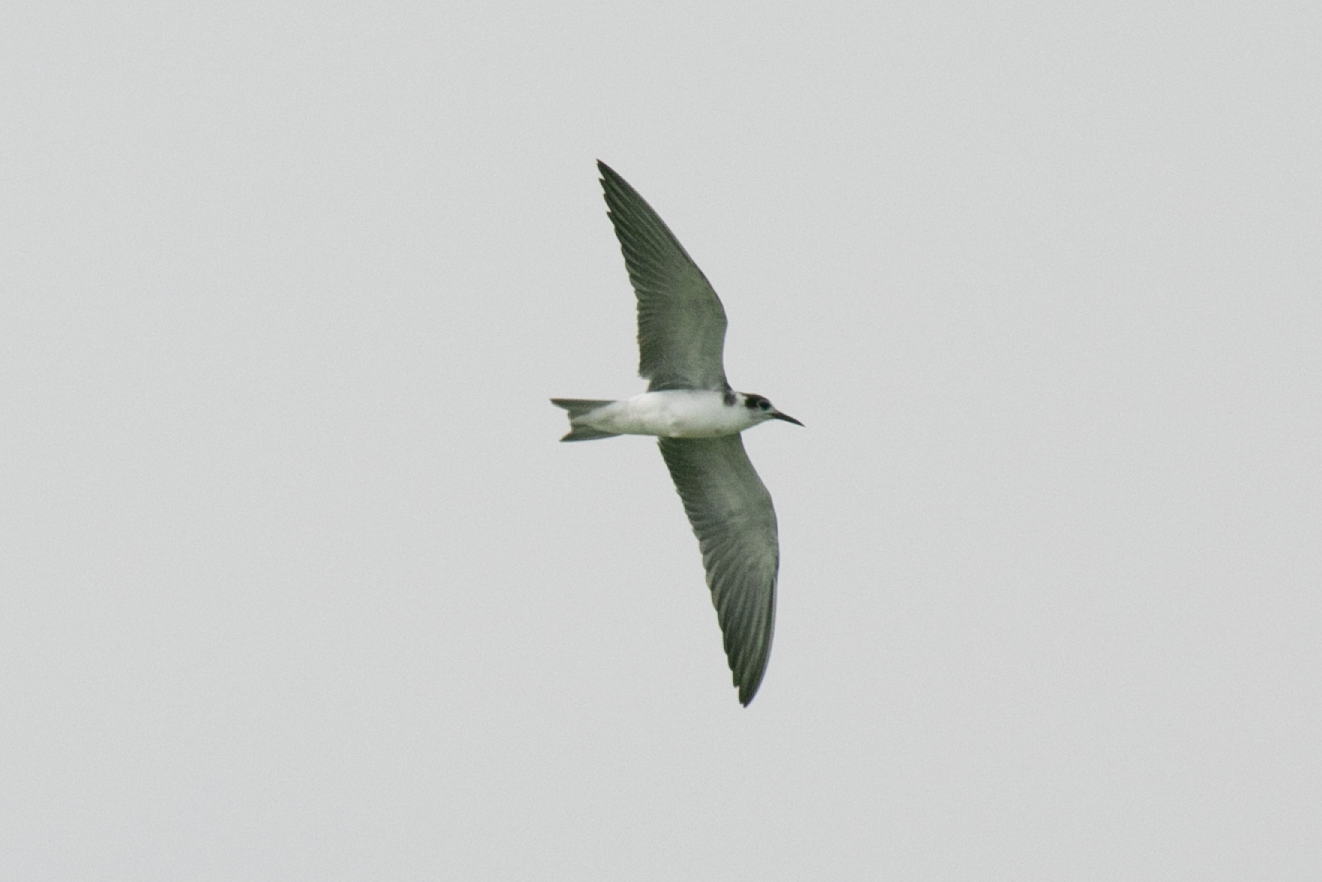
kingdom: Animalia
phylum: Chordata
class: Aves
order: Charadriiformes
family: Laridae
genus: Chlidonias
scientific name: Chlidonias niger
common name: Black tern
